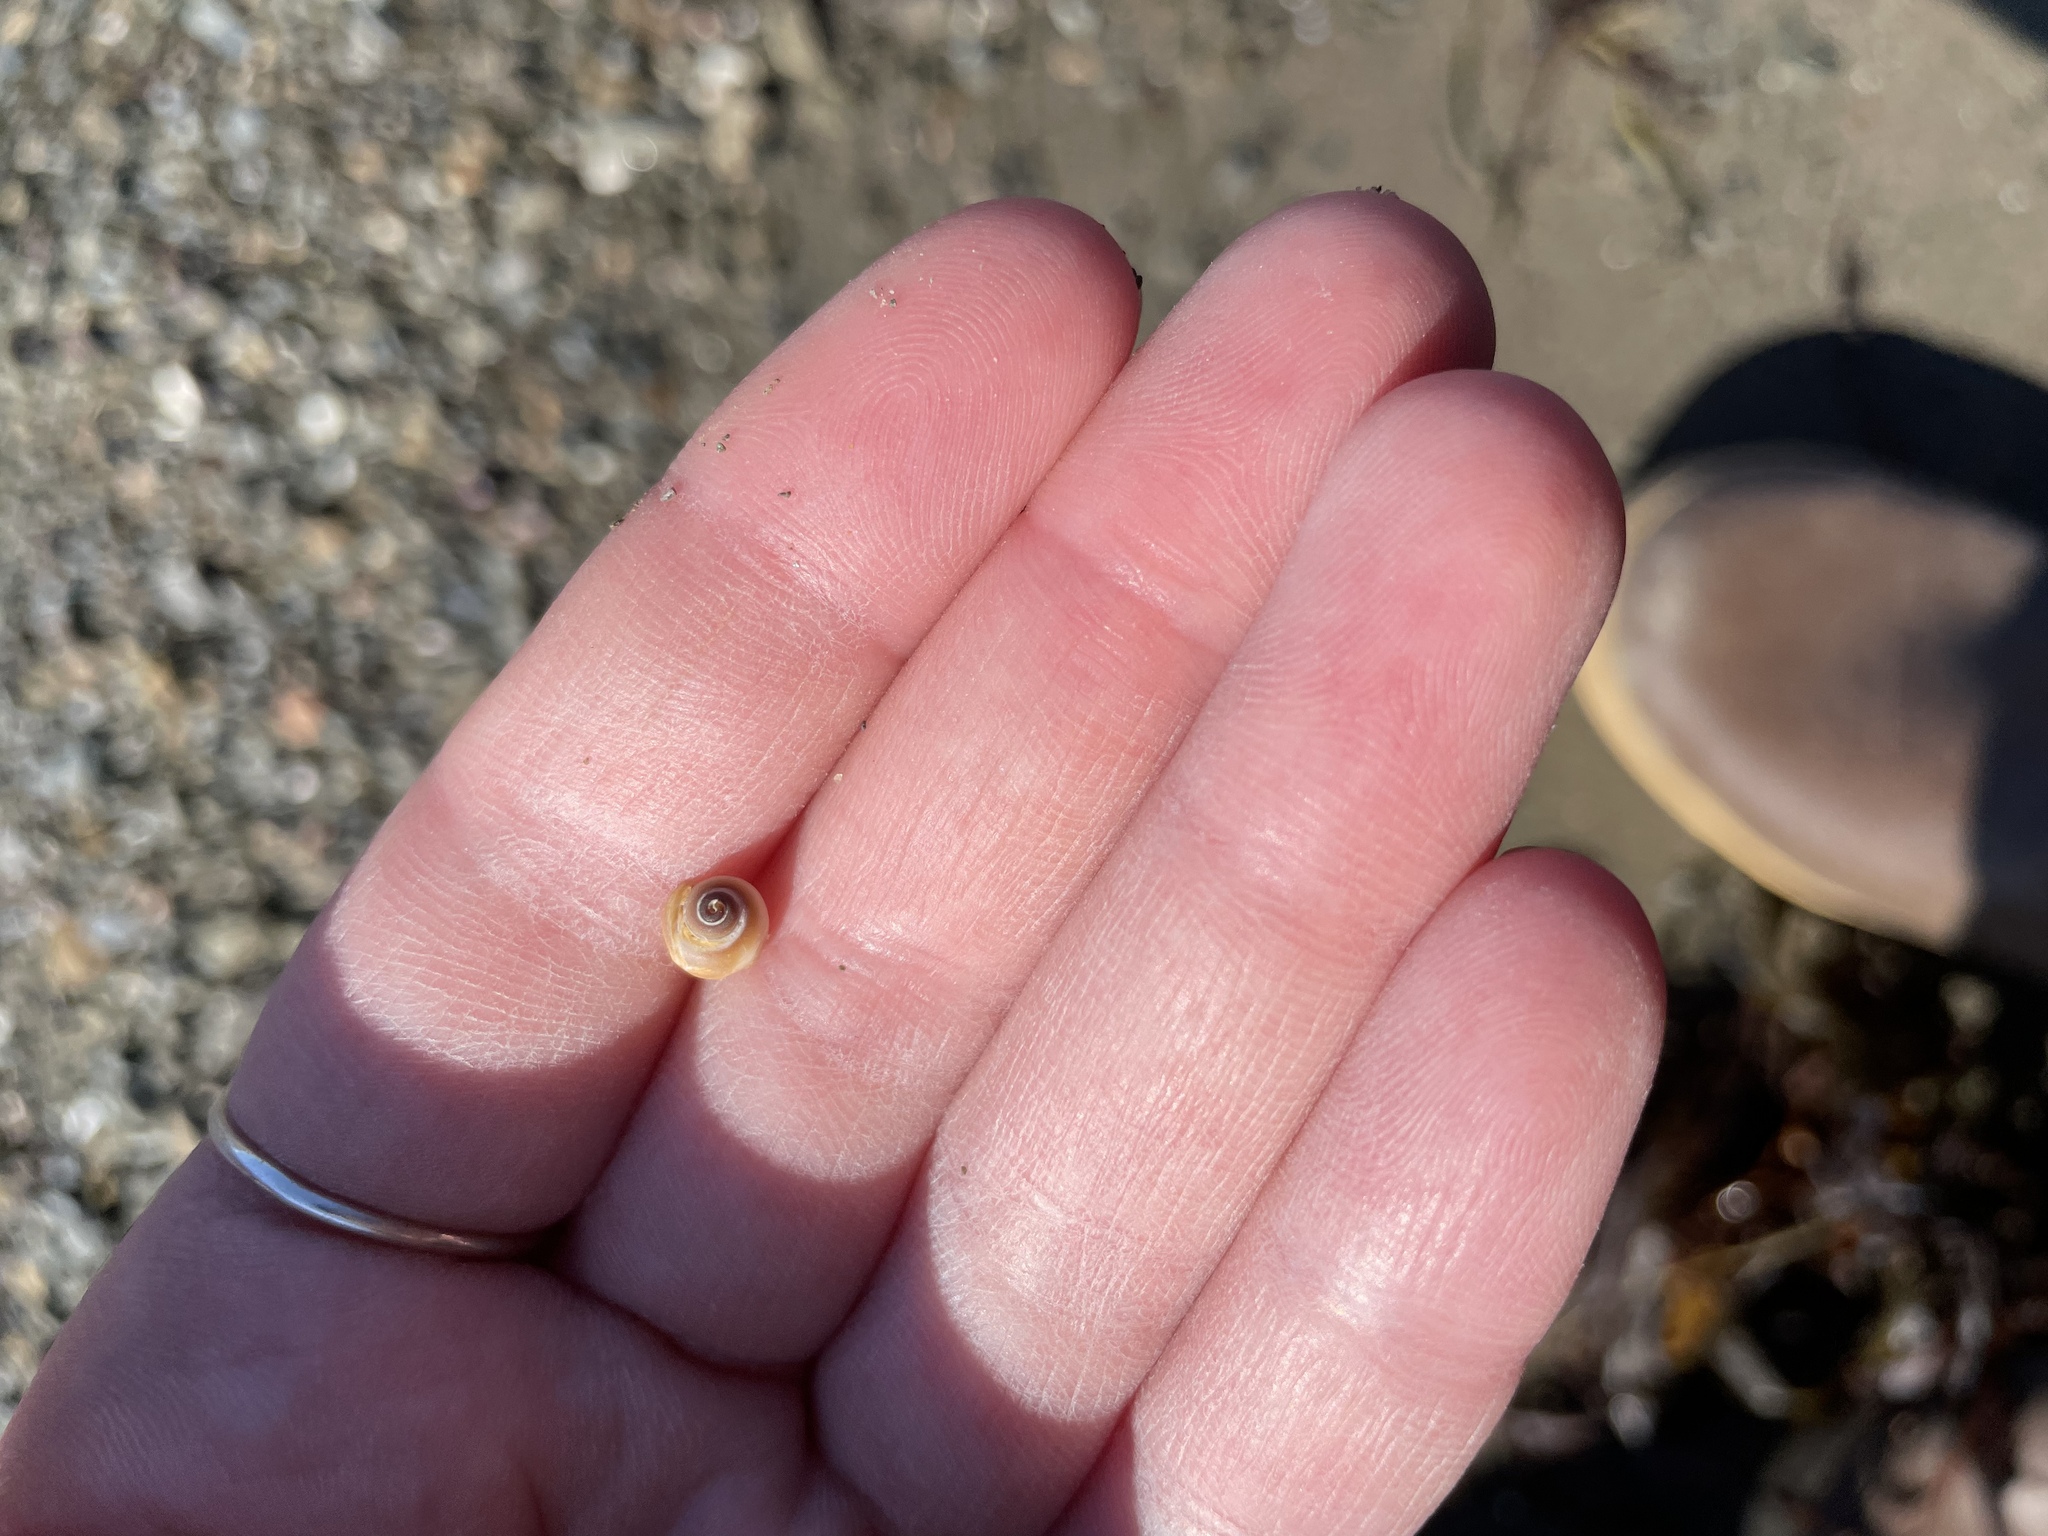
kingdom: Animalia
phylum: Mollusca
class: Gastropoda
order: Littorinimorpha
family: Naticidae
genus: Euspira
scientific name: Euspira heros
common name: Common northern moonsnail
